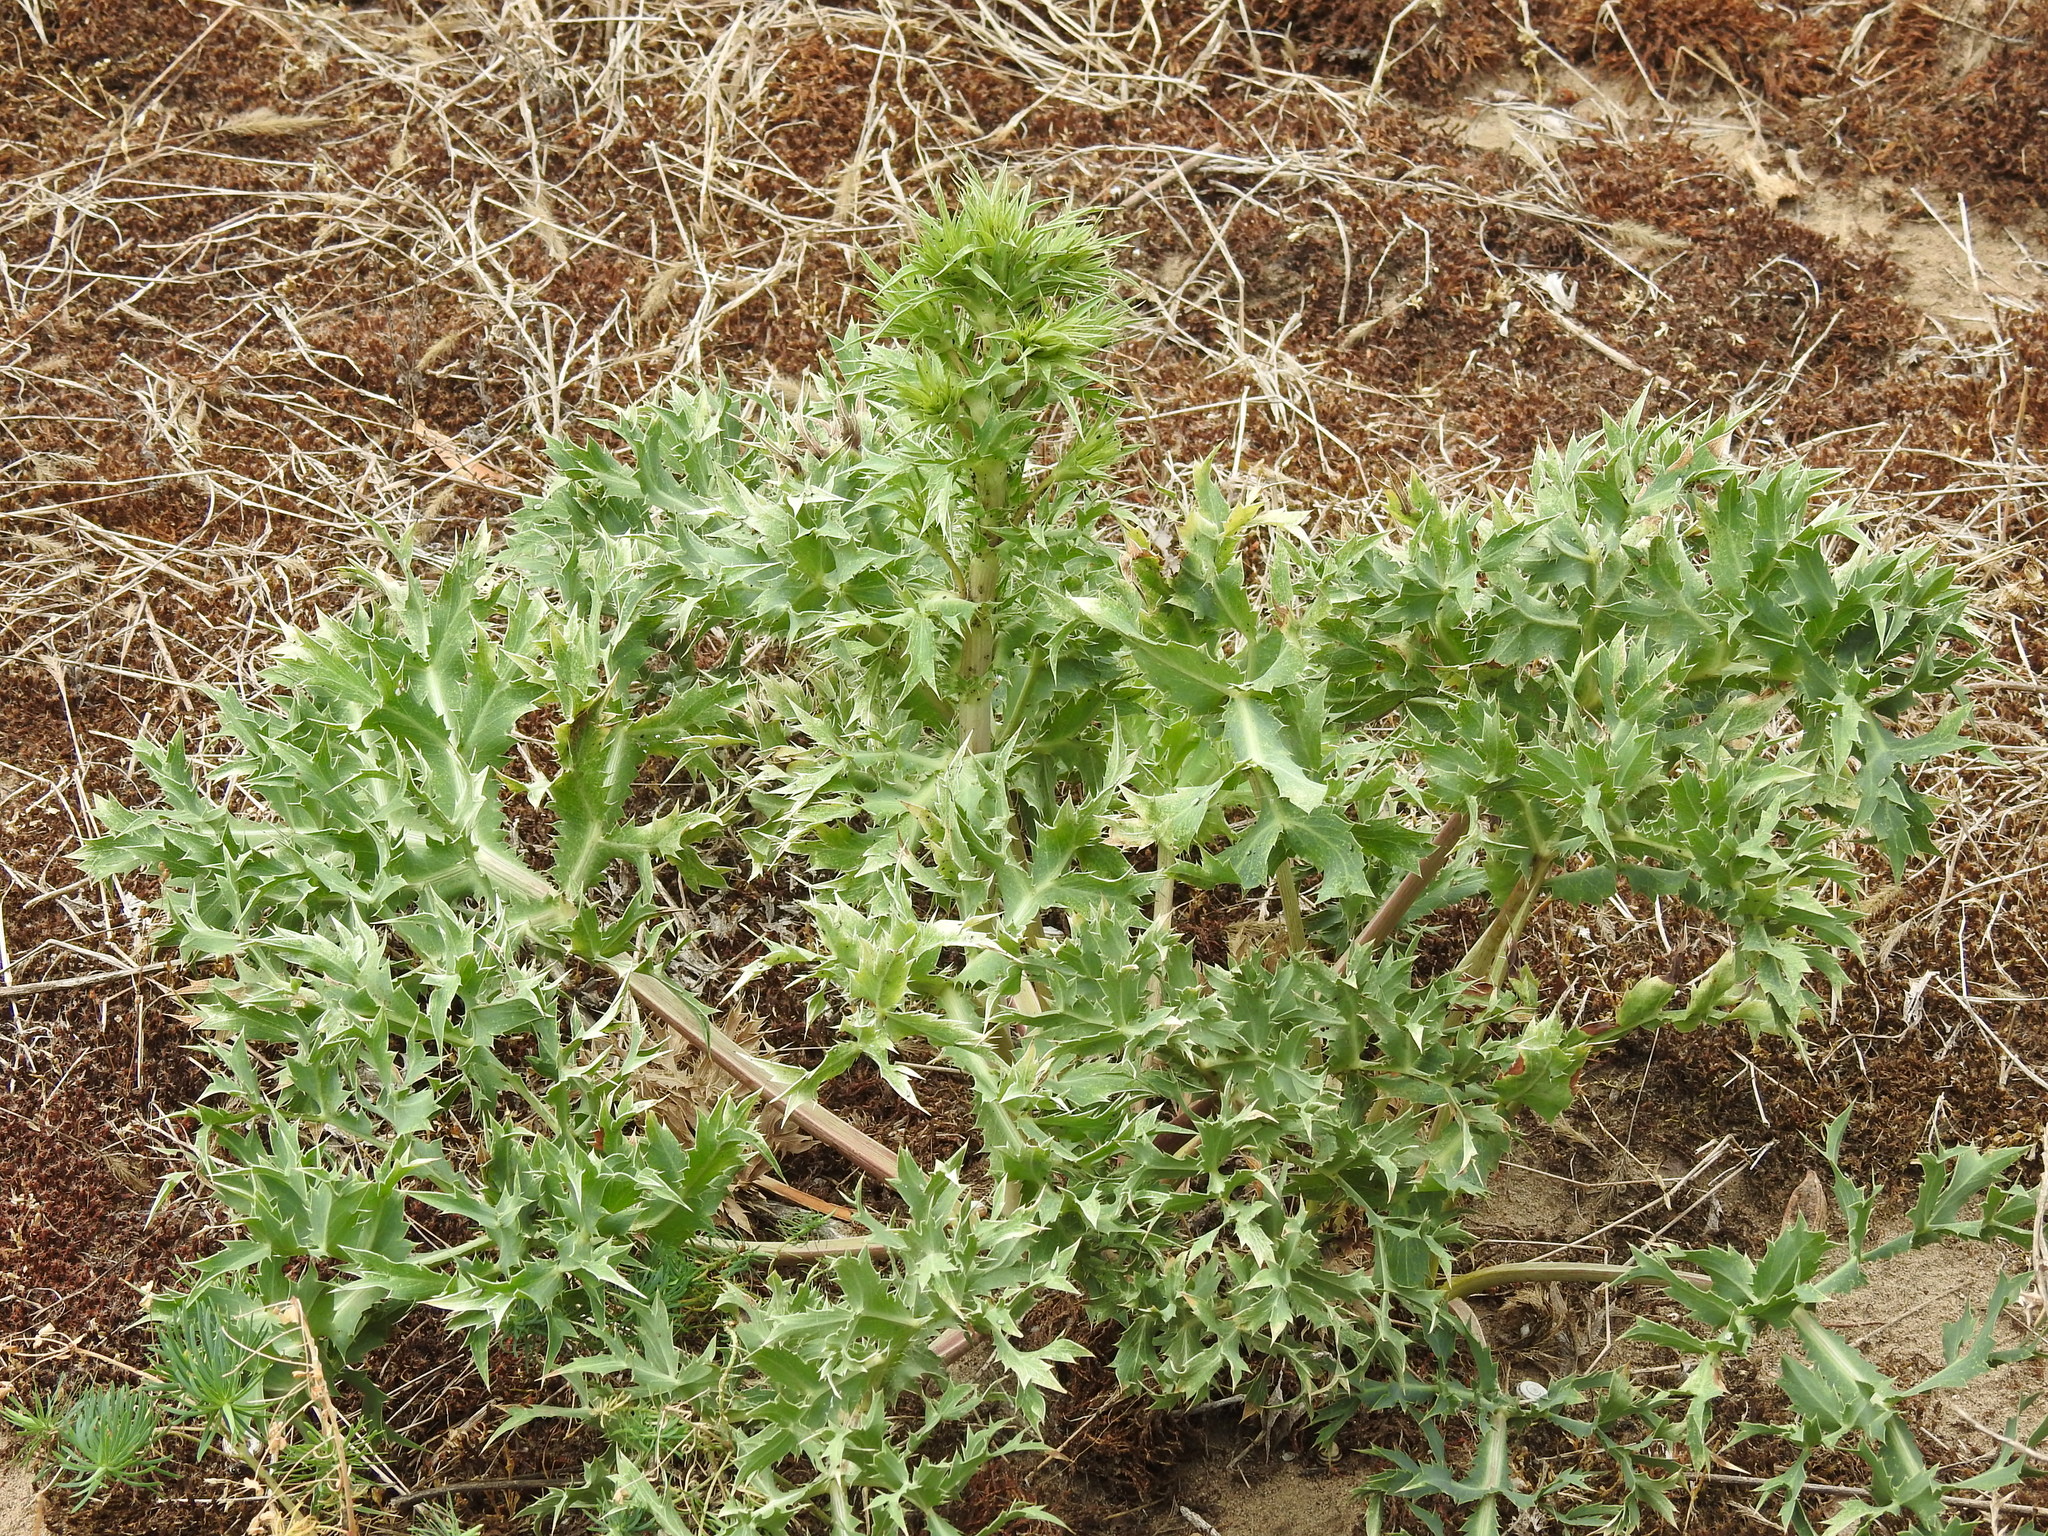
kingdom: Plantae
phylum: Tracheophyta
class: Magnoliopsida
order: Apiales
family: Apiaceae
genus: Eryngium
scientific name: Eryngium campestre
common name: Field eryngo
